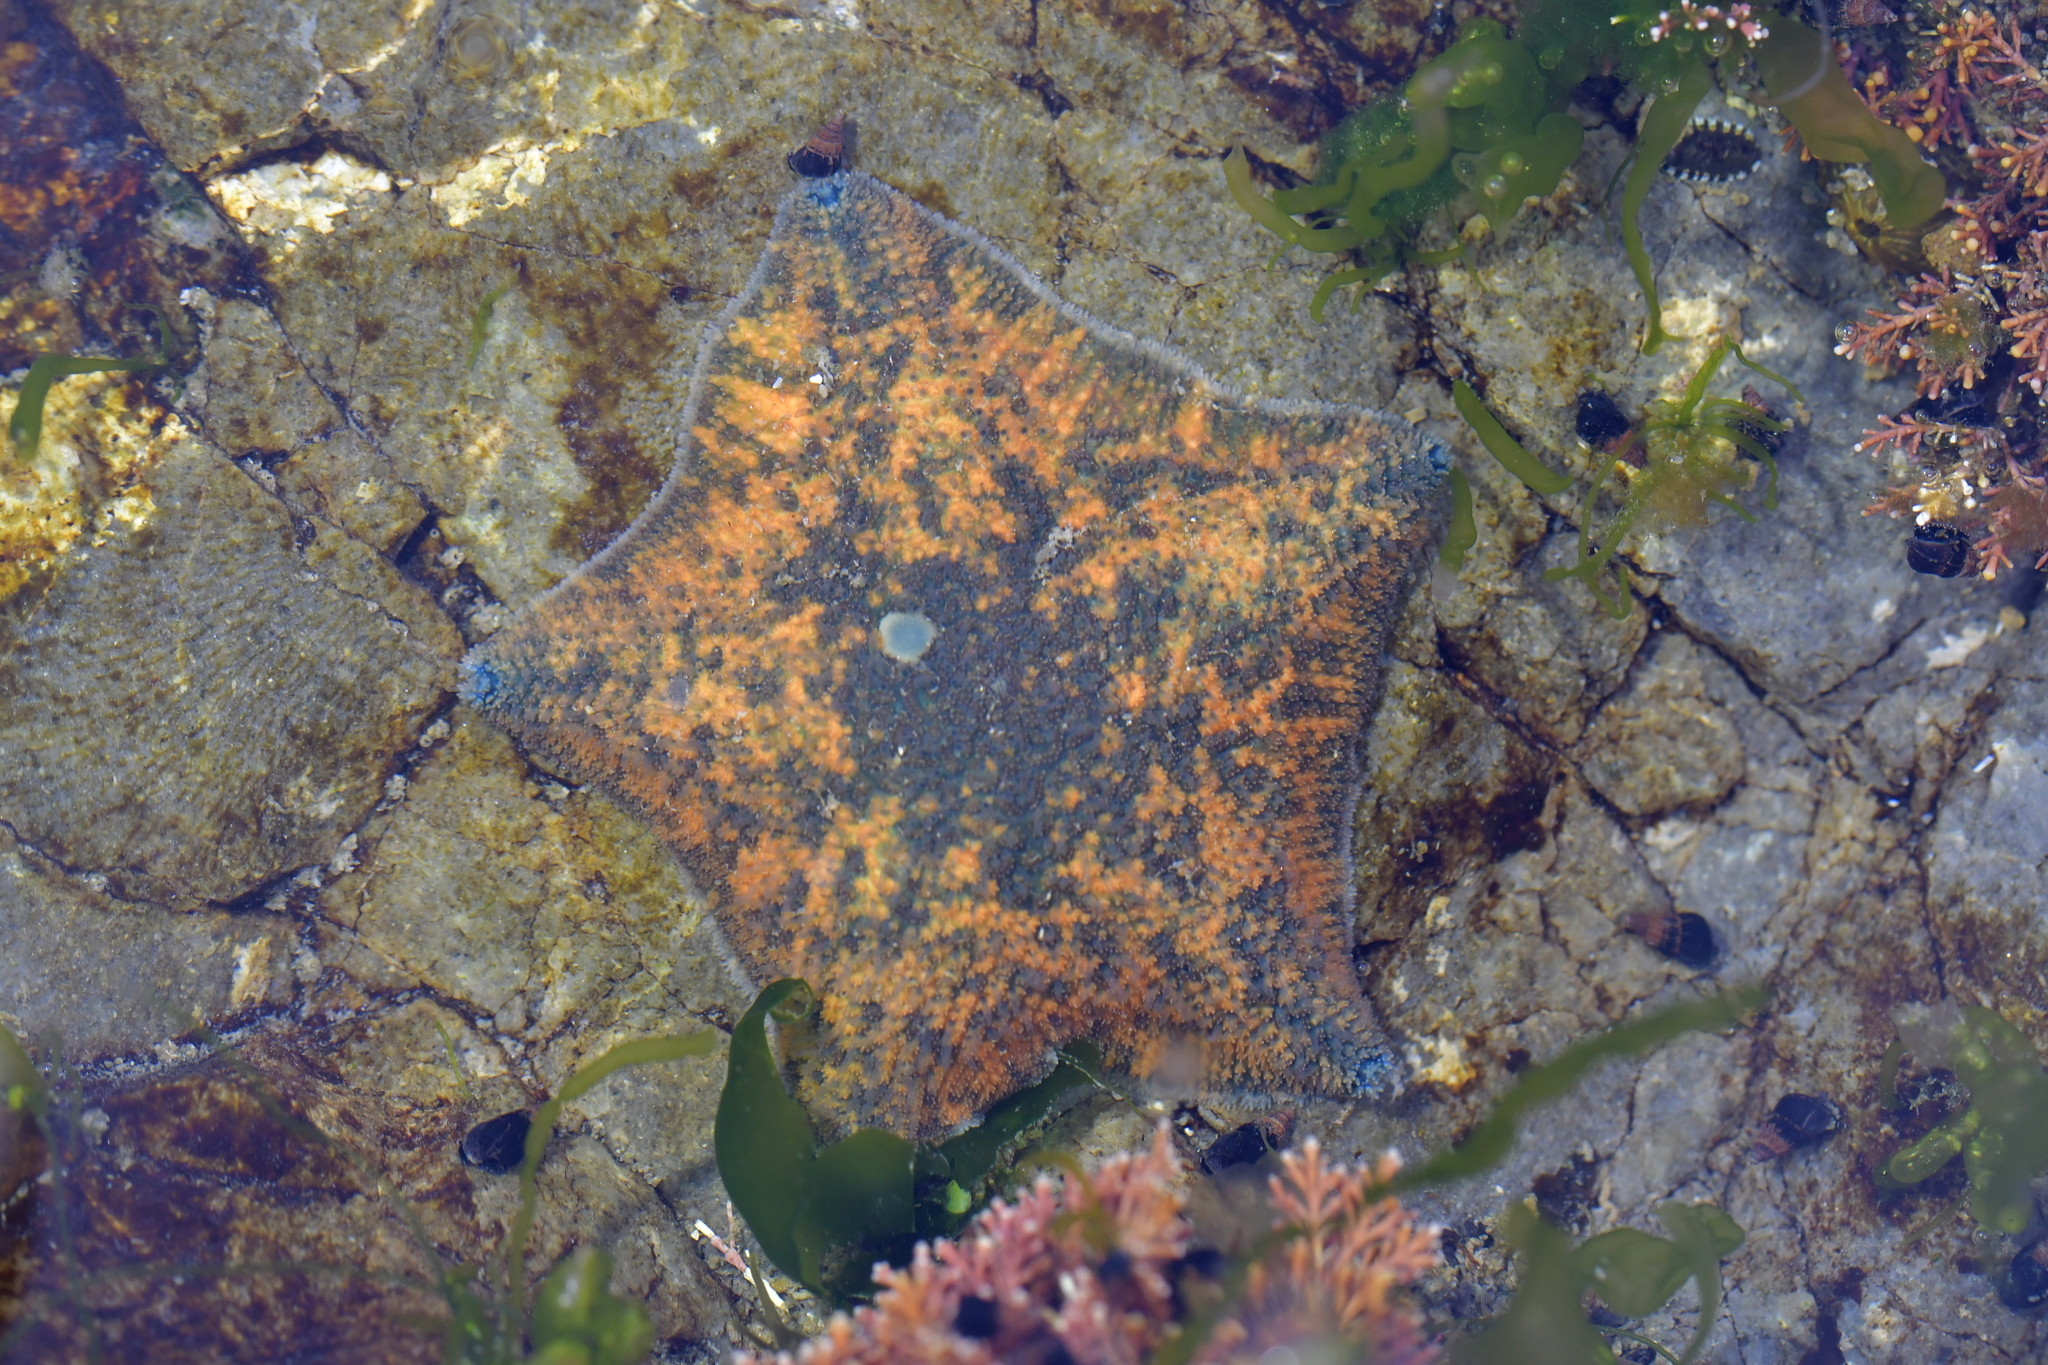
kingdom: Animalia
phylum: Echinodermata
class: Asteroidea
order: Valvatida
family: Asterinidae
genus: Patiriella
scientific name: Patiriella regularis
